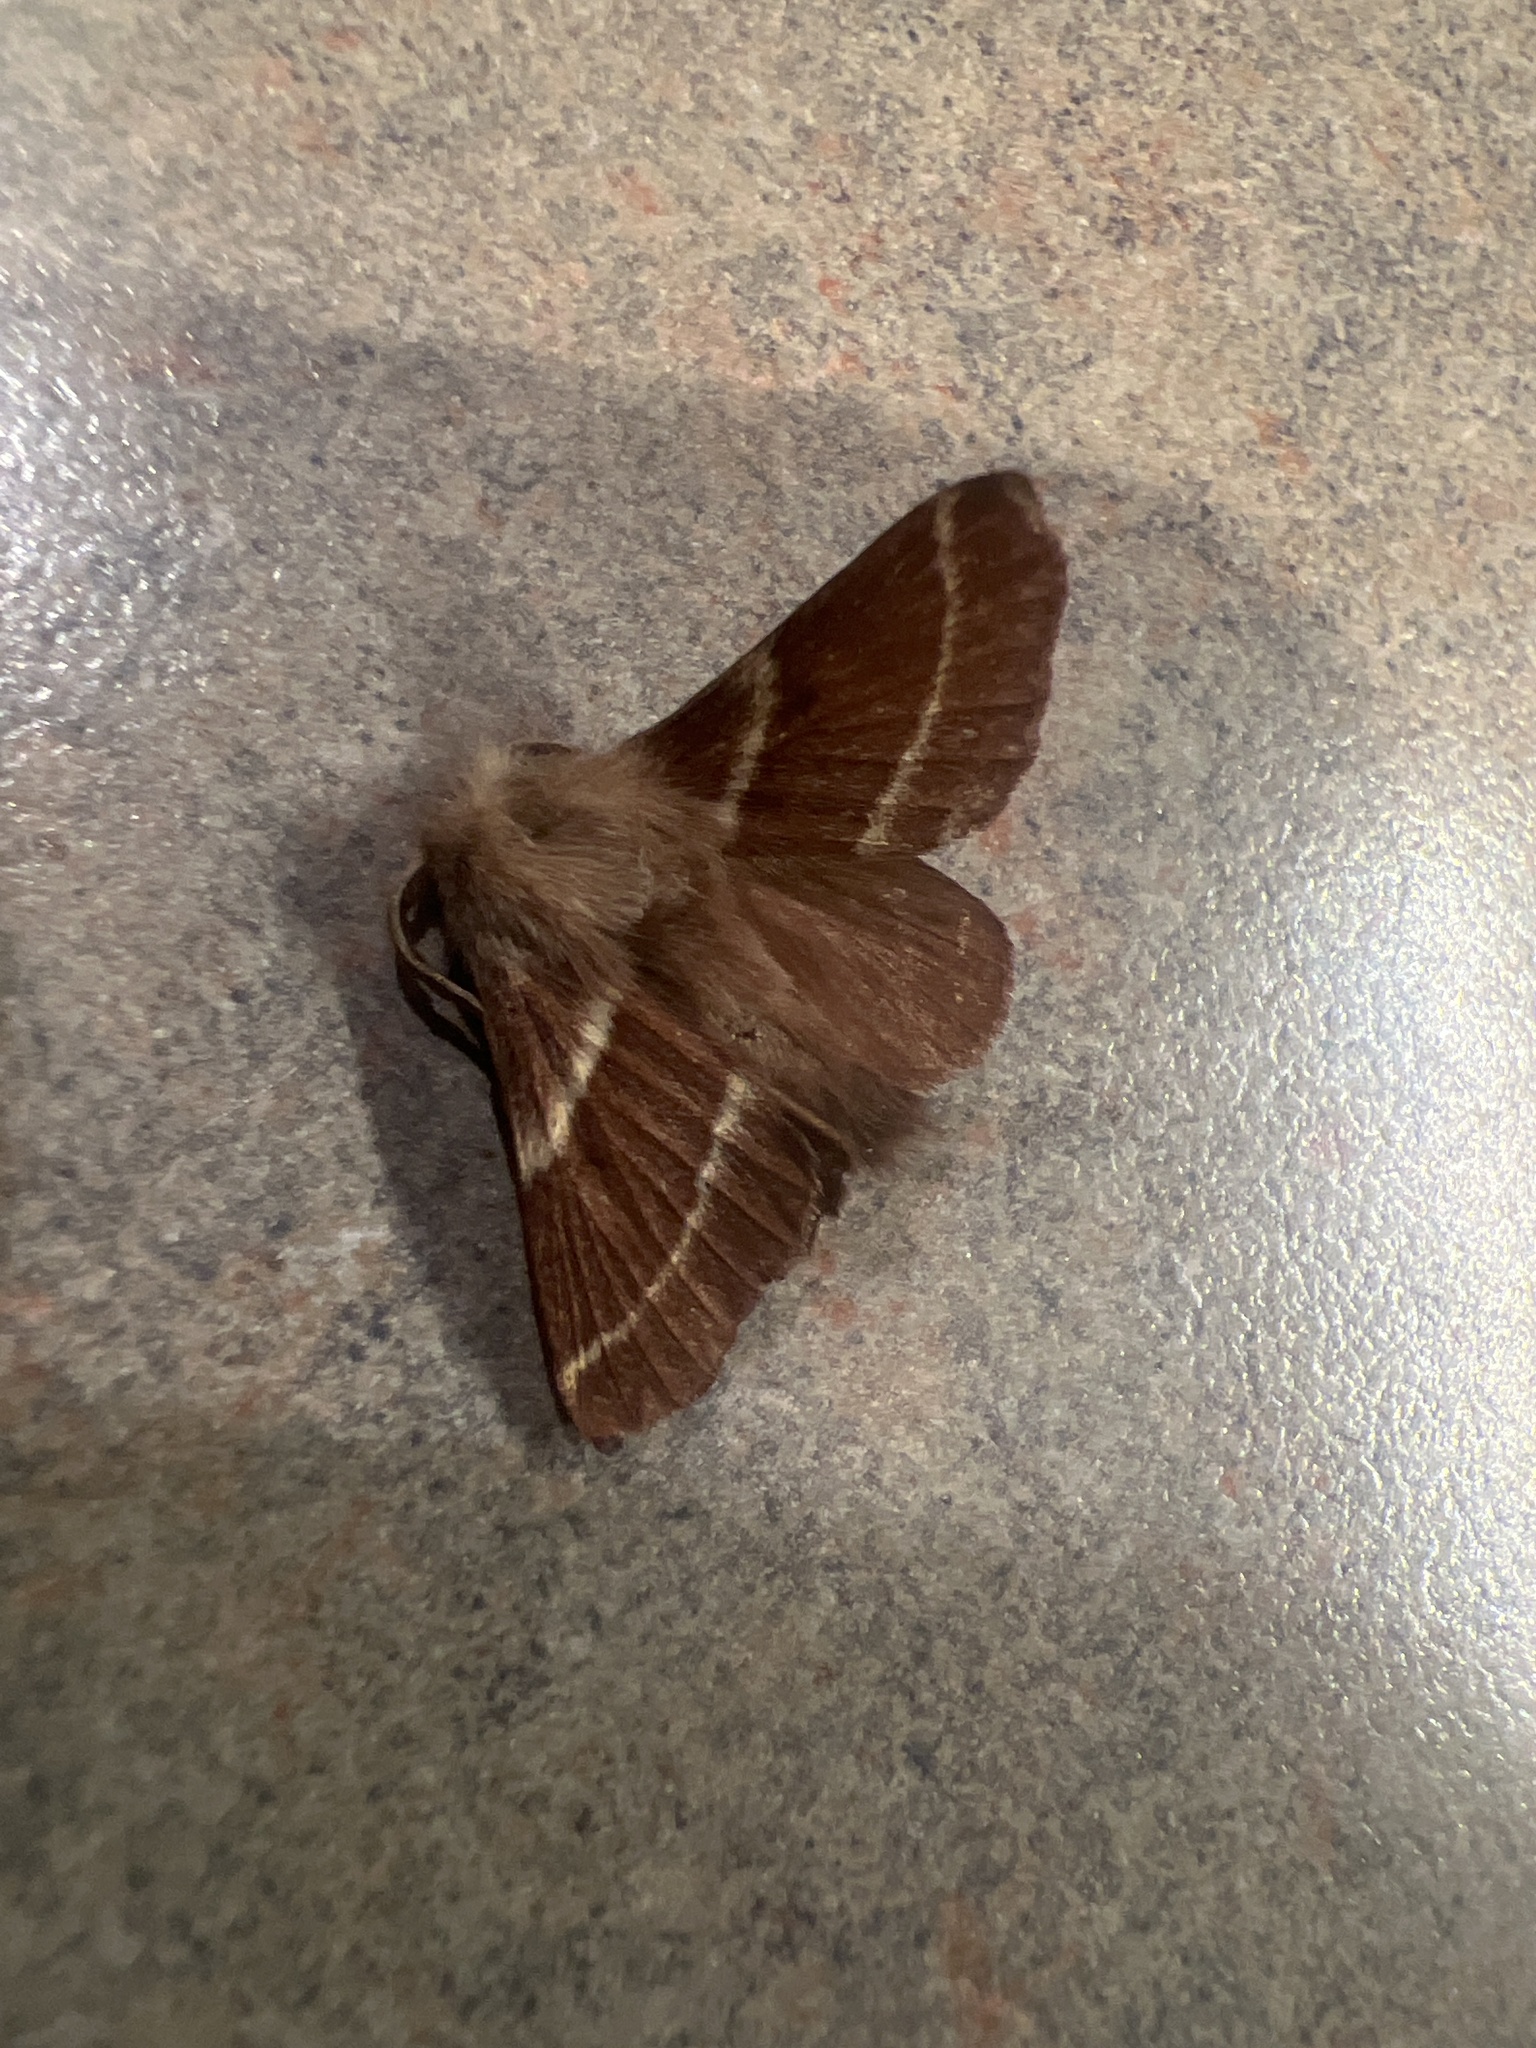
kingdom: Animalia
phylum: Arthropoda
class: Insecta
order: Lepidoptera
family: Lasiocampidae
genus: Malacosoma
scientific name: Malacosoma californica
